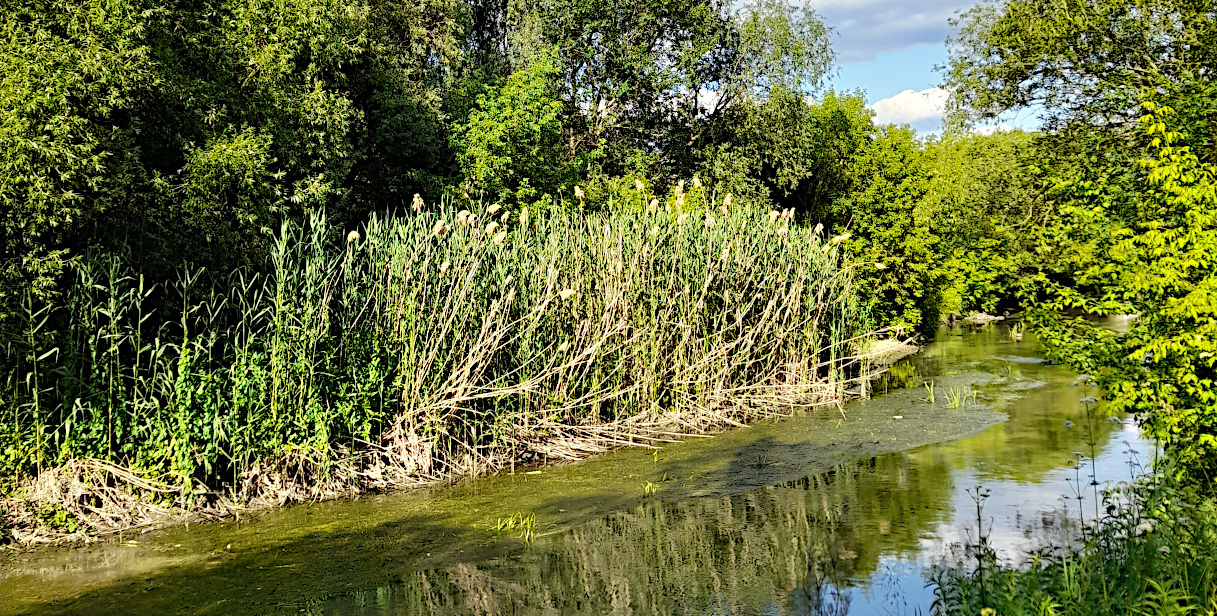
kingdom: Plantae
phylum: Tracheophyta
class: Liliopsida
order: Poales
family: Poaceae
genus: Phragmites
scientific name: Phragmites australis
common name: Common reed
